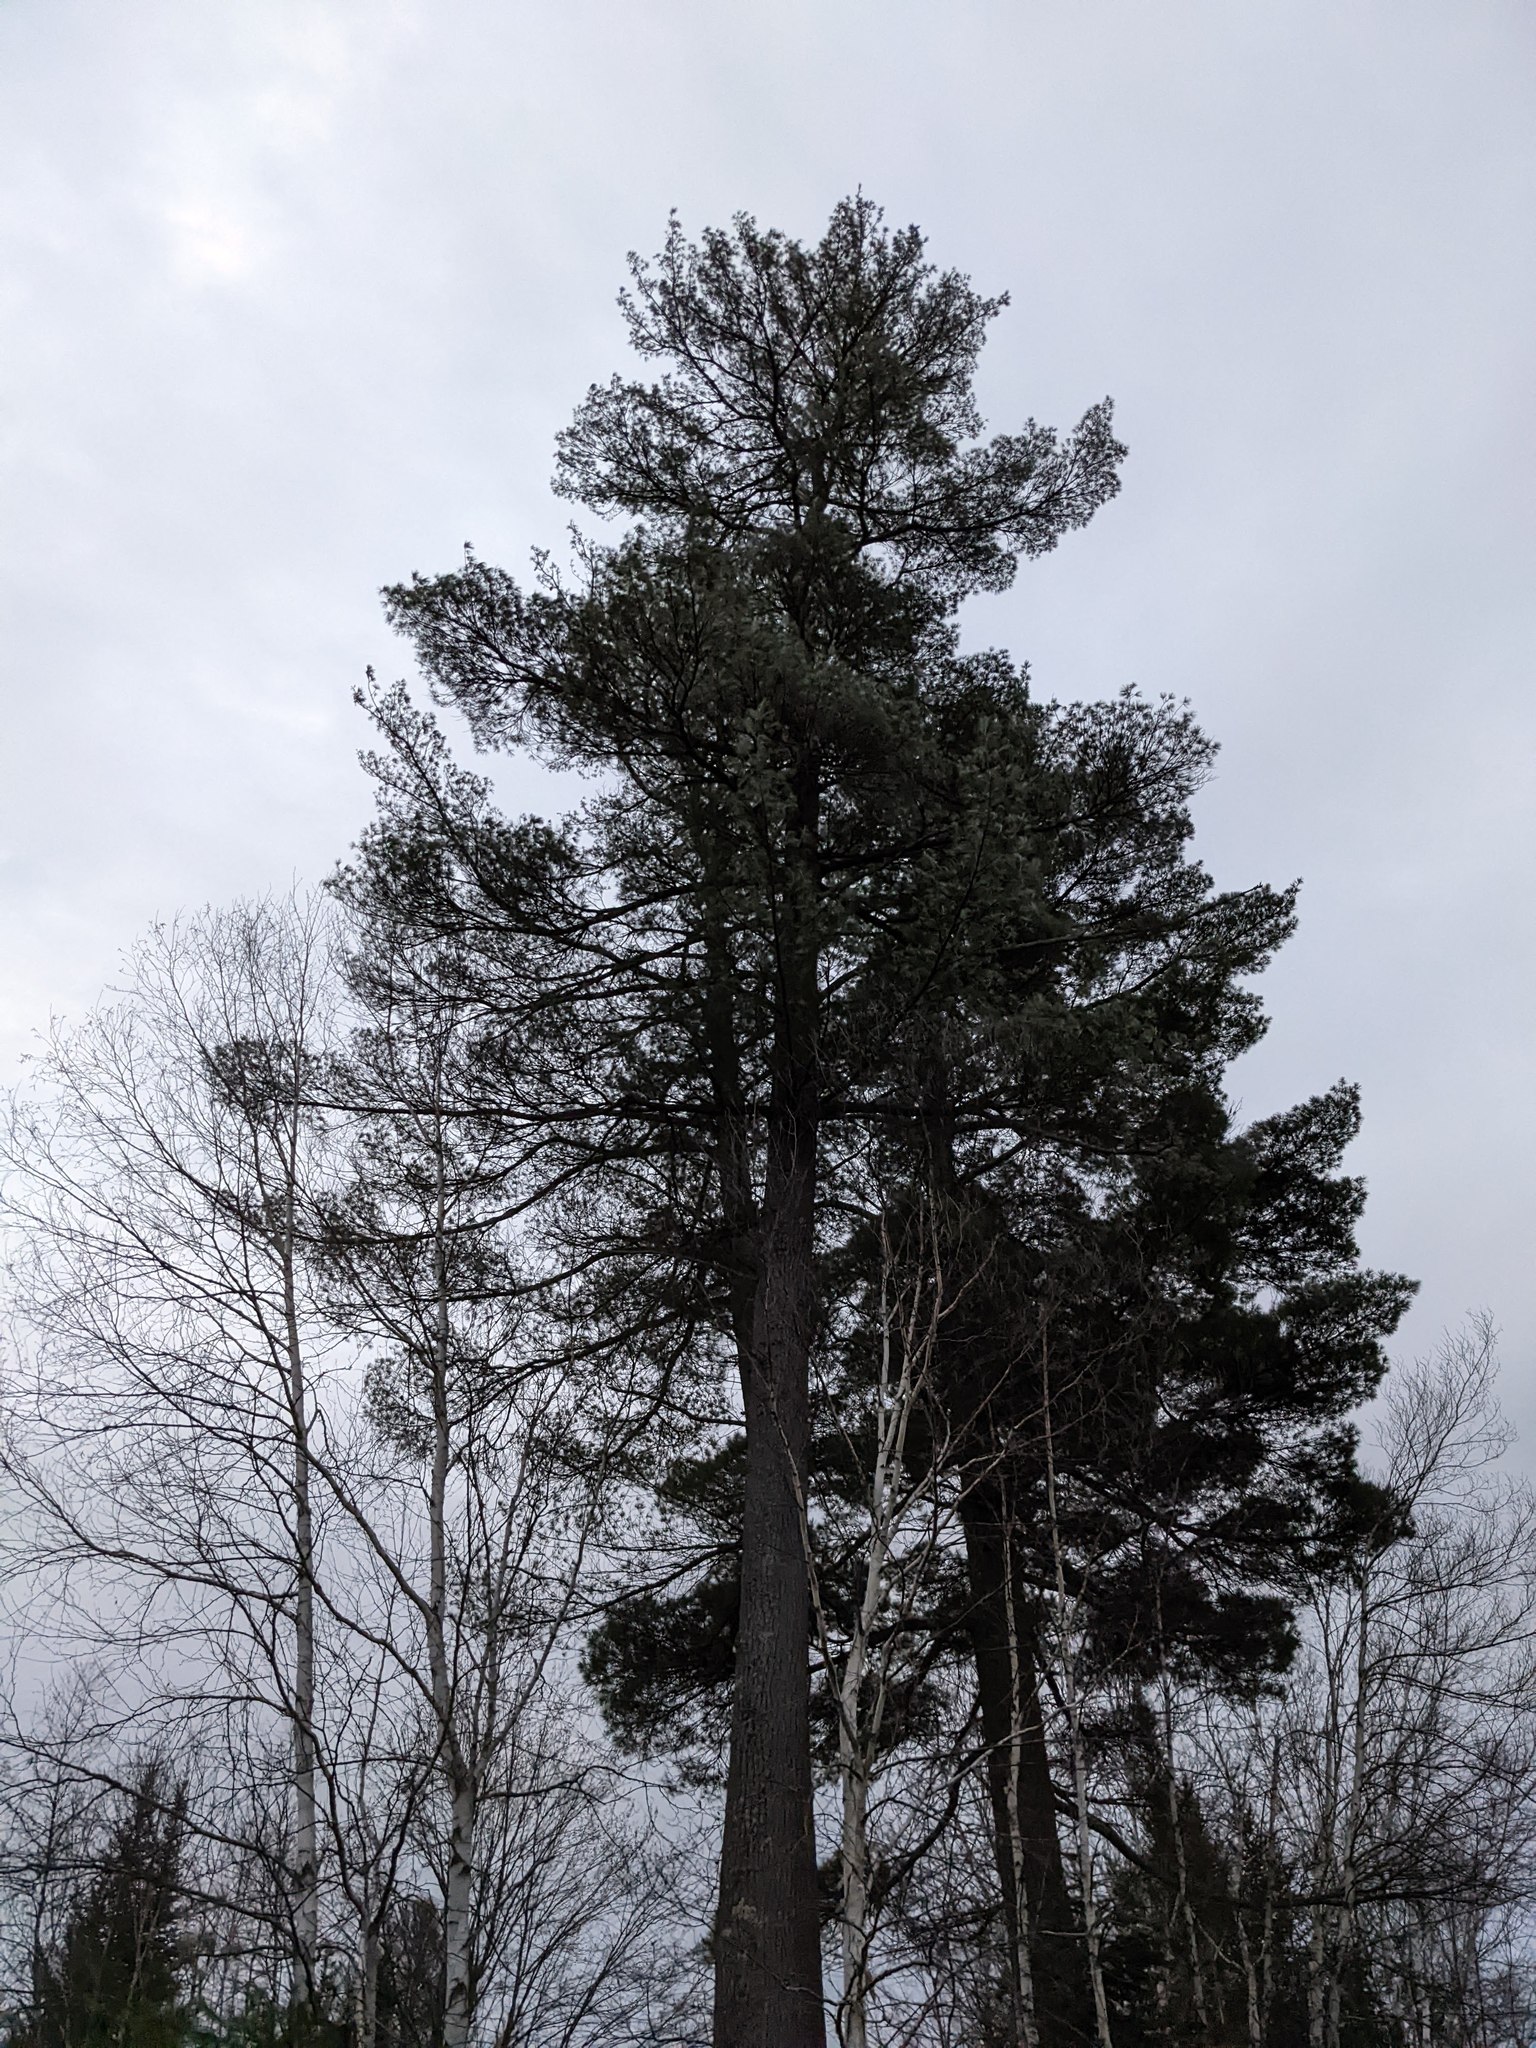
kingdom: Plantae
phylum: Tracheophyta
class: Pinopsida
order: Pinales
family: Pinaceae
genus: Pinus
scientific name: Pinus strobus
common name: Weymouth pine
